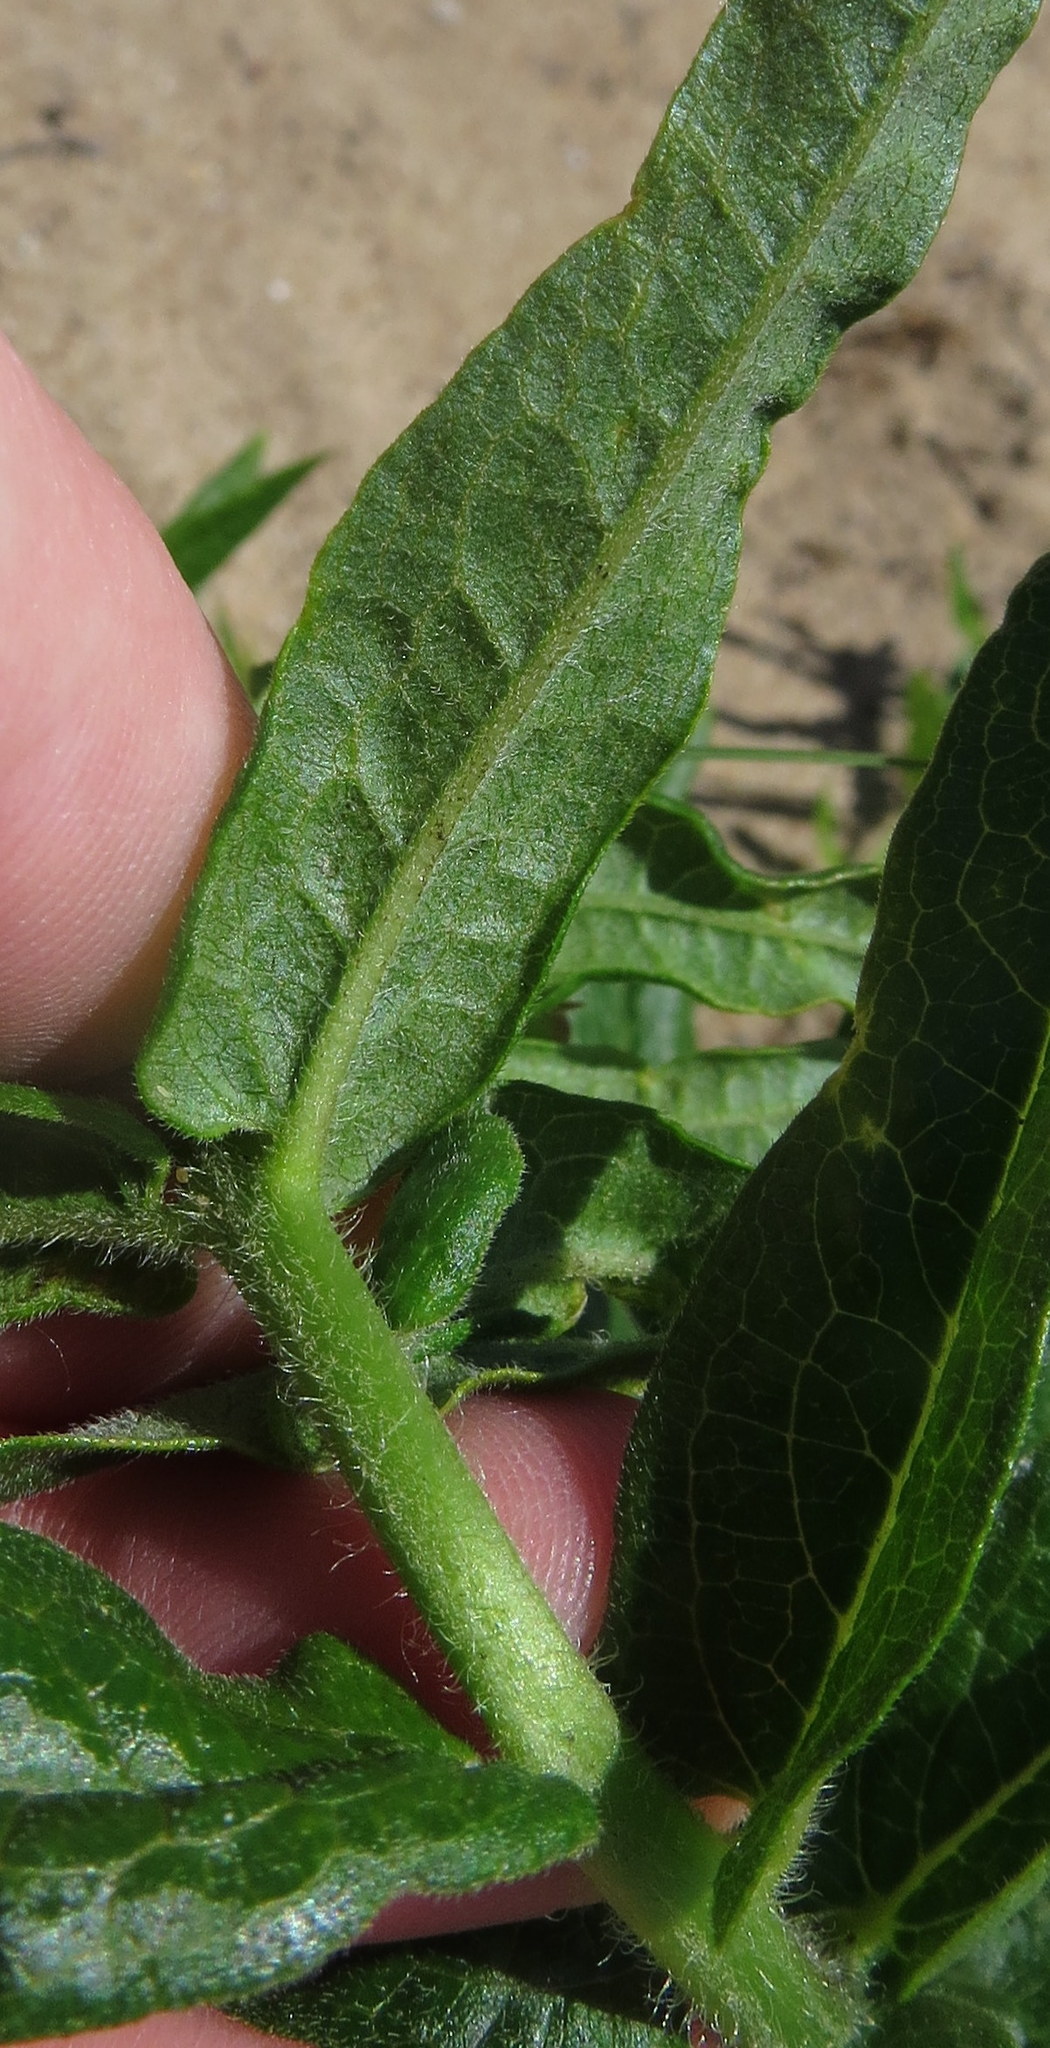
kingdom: Plantae
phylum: Tracheophyta
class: Magnoliopsida
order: Gentianales
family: Apocynaceae
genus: Asclepias
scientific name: Asclepias tuberosa
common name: Butterfly milkweed
